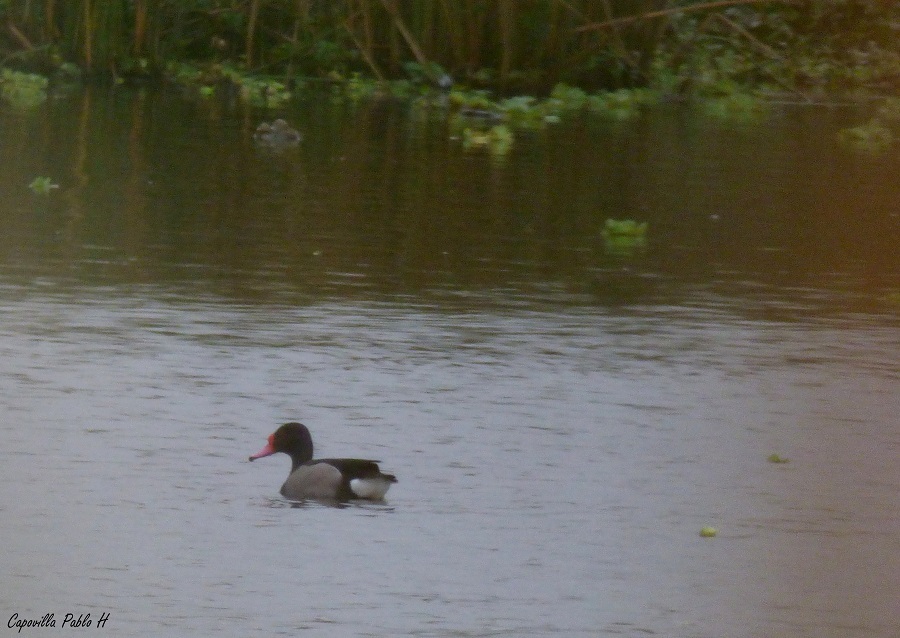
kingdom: Animalia
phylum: Chordata
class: Aves
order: Anseriformes
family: Anatidae
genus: Netta
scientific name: Netta peposaca
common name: Rosy-billed pochard
